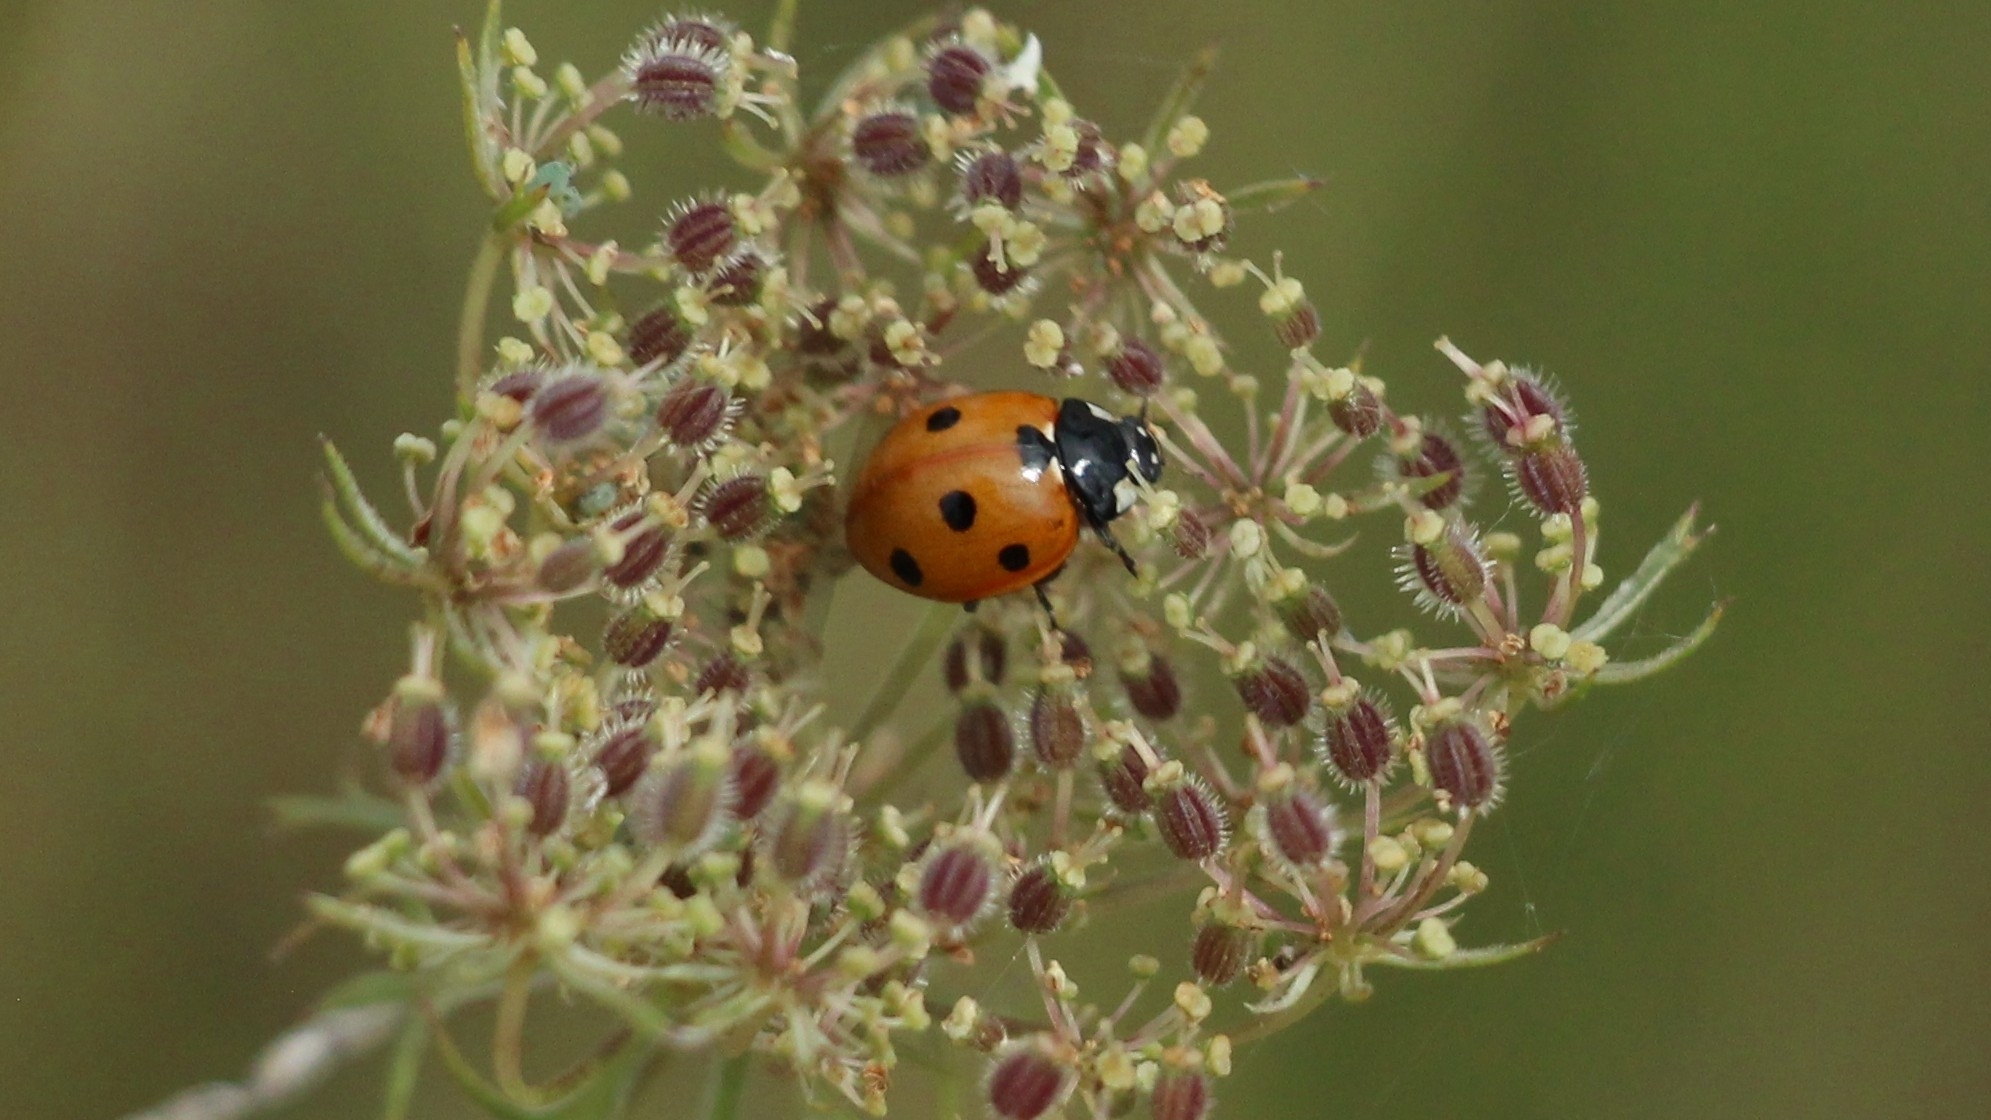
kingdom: Animalia
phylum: Arthropoda
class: Insecta
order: Coleoptera
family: Coccinellidae
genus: Coccinella
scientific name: Coccinella septempunctata
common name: Sevenspotted lady beetle
